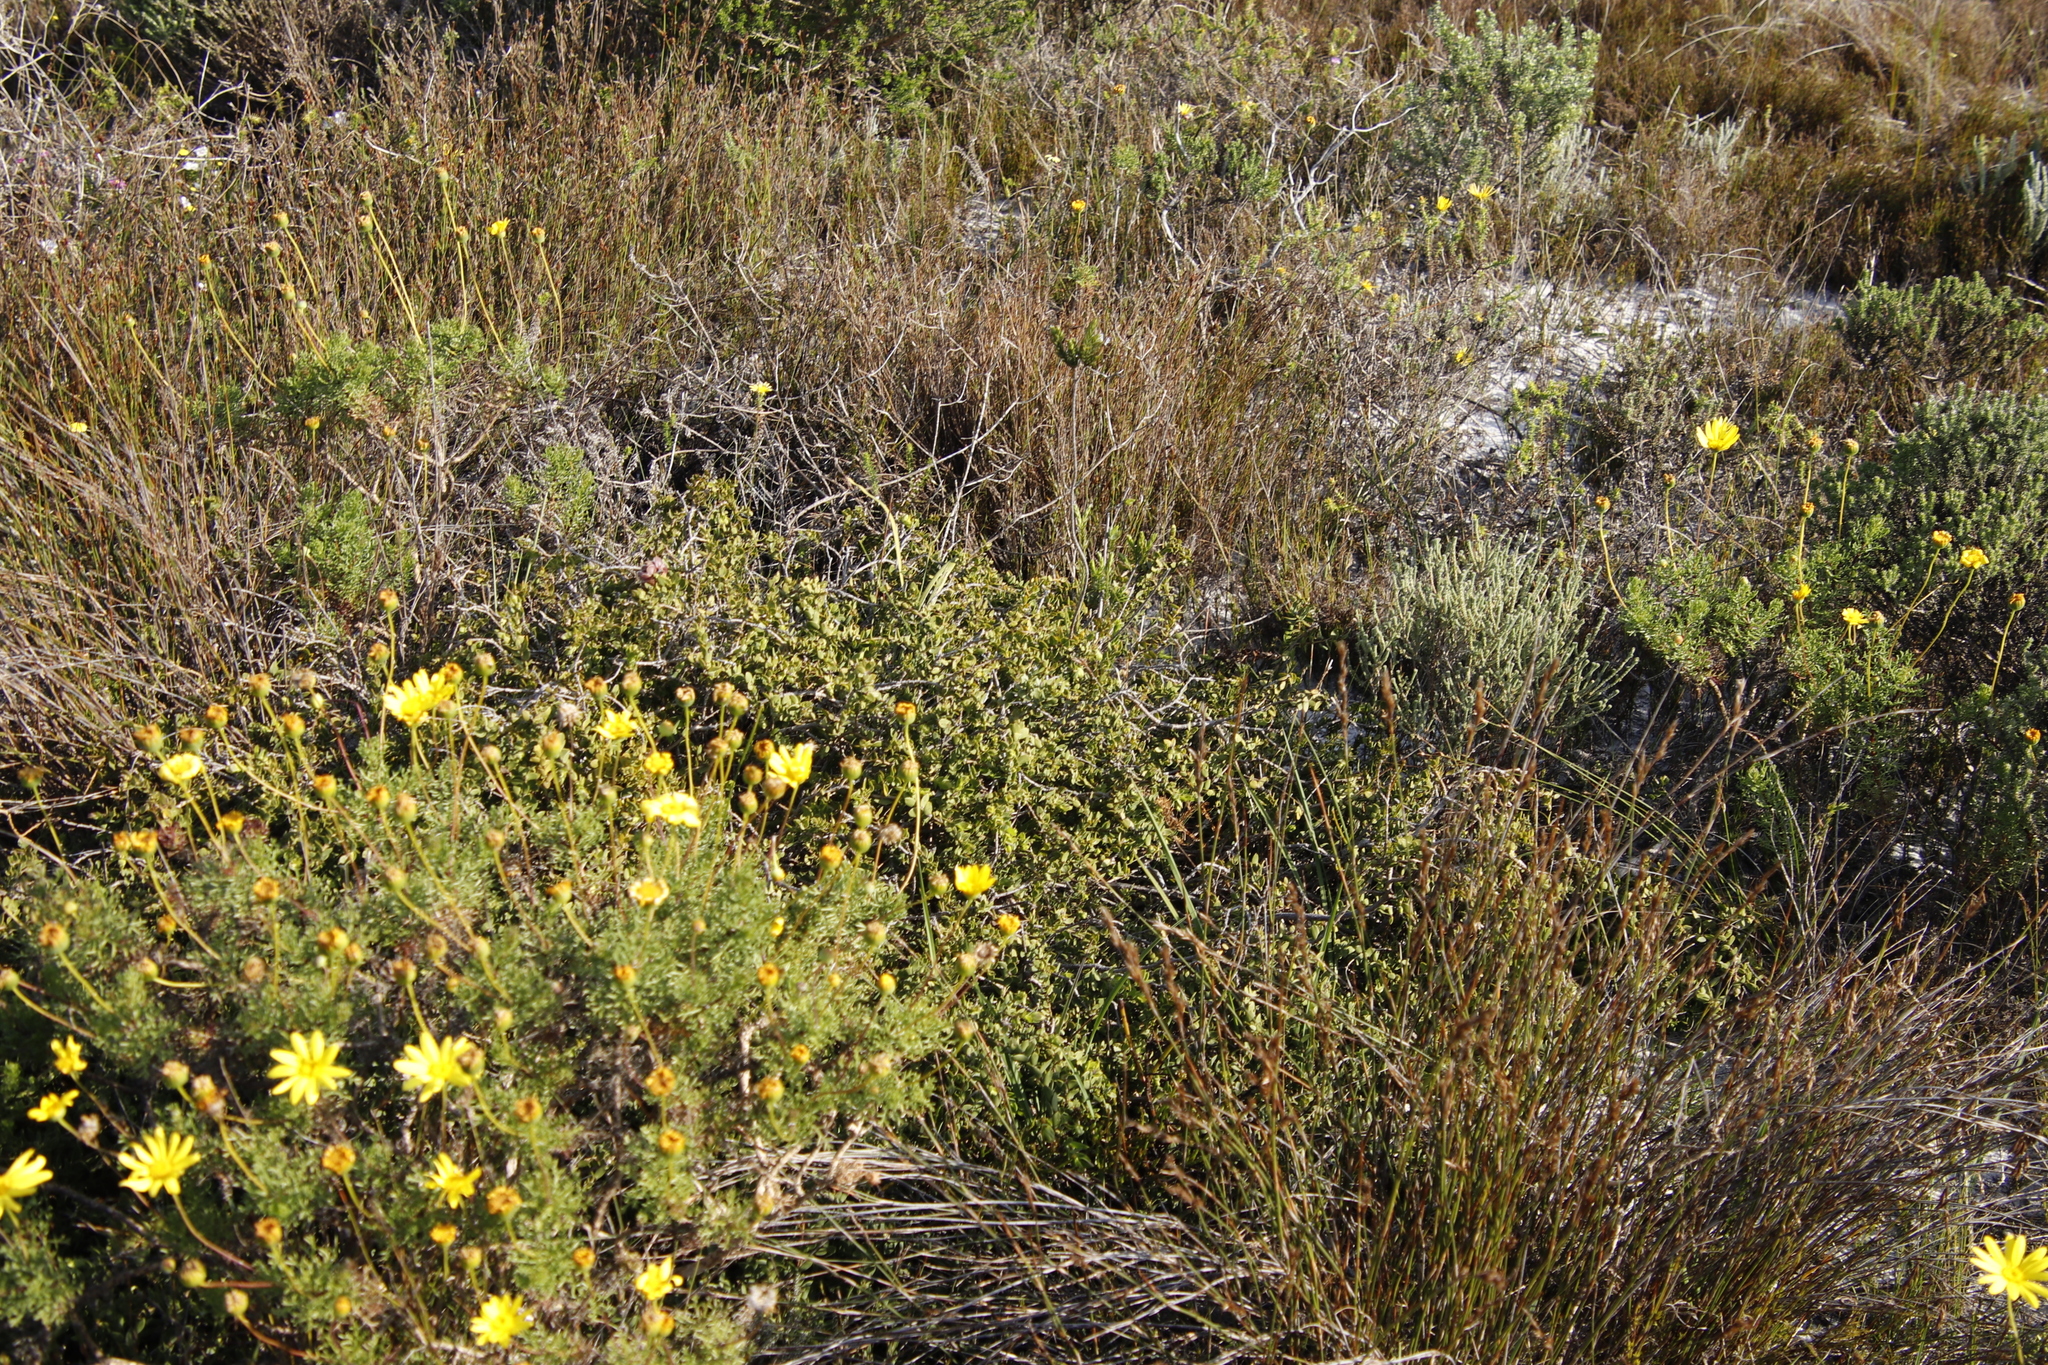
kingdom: Plantae
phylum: Tracheophyta
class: Magnoliopsida
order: Fabales
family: Fabaceae
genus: Liparia
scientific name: Liparia parva
